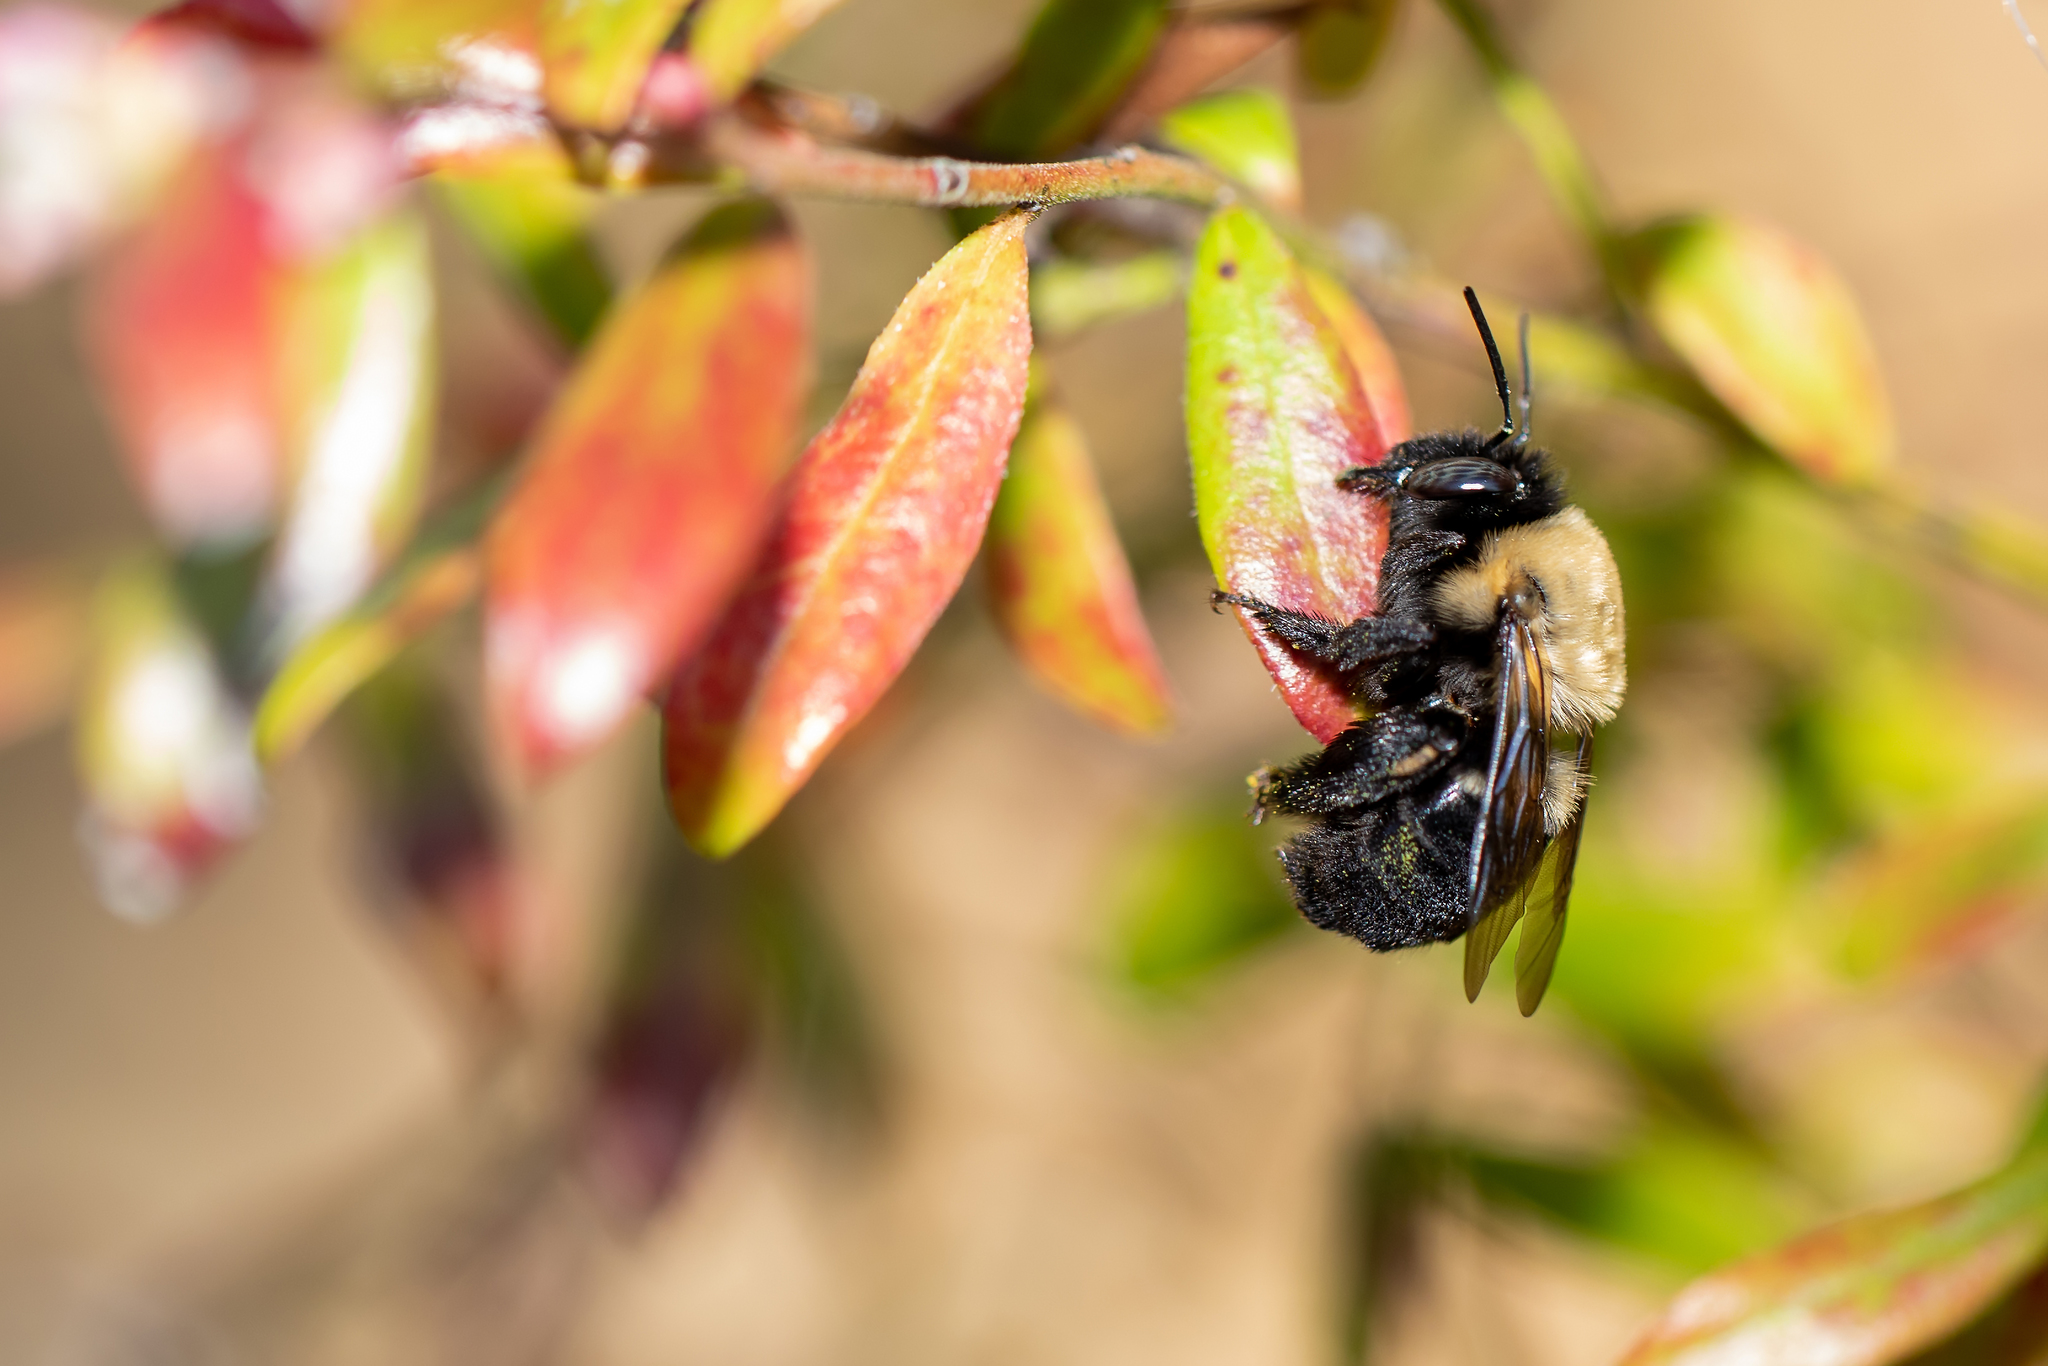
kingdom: Animalia
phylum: Arthropoda
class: Insecta
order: Hymenoptera
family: Apidae
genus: Habropoda
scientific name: Habropoda laboriosa
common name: Southeastern blueberry bee
